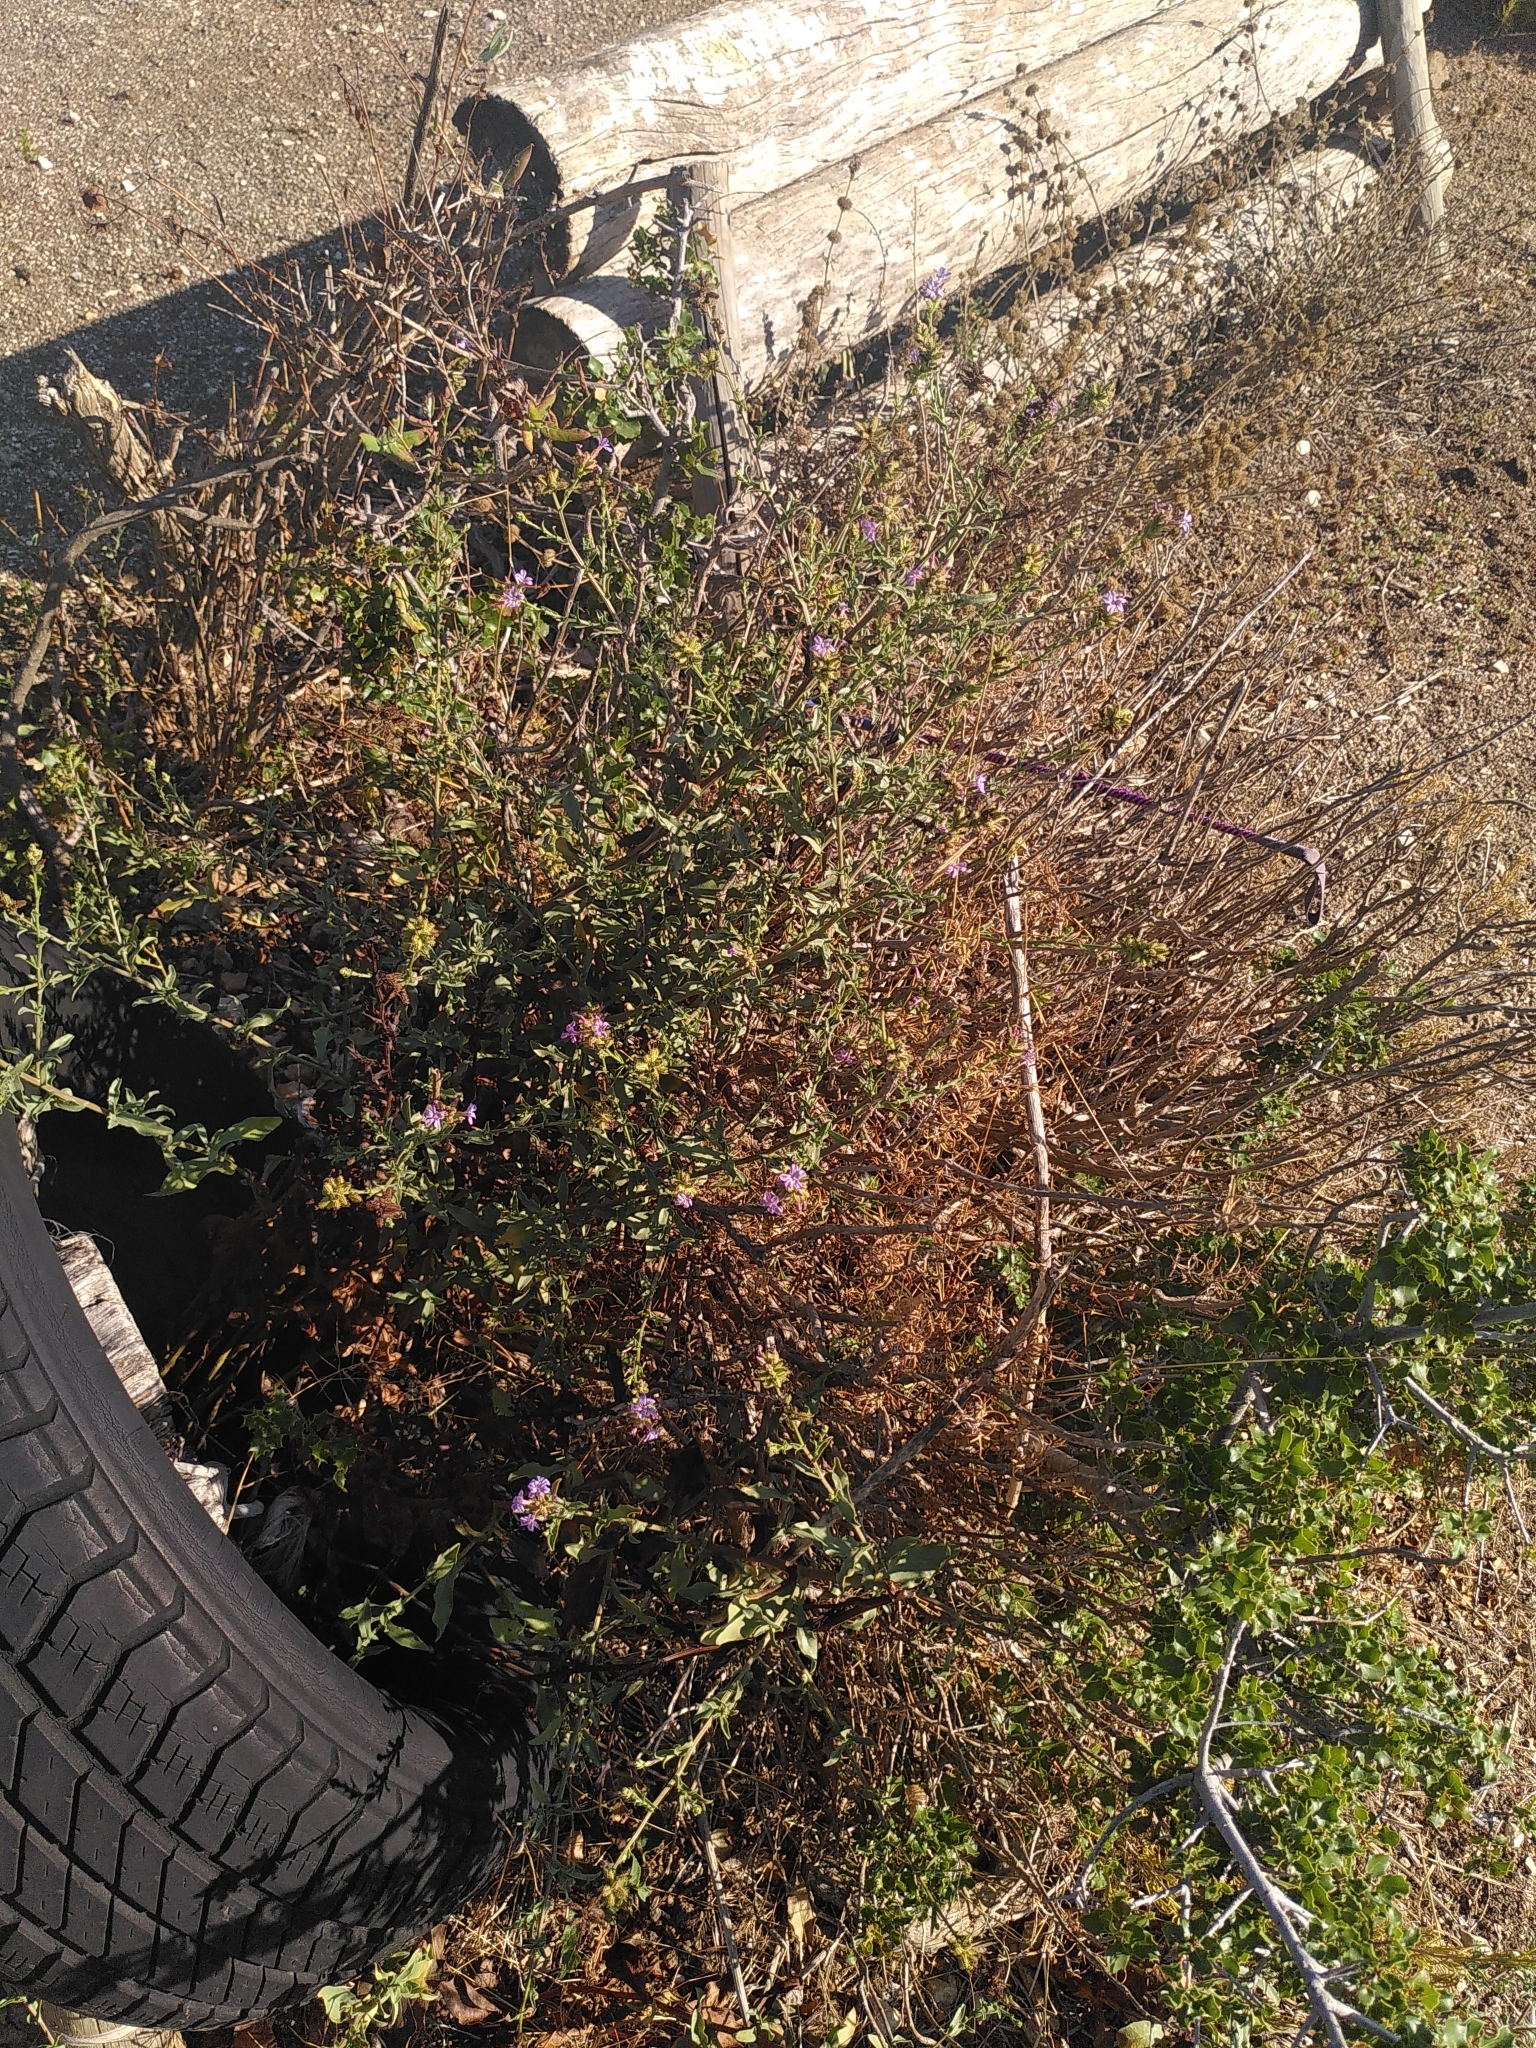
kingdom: Plantae
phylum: Tracheophyta
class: Magnoliopsida
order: Caryophyllales
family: Plumbaginaceae
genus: Plumbago
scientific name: Plumbago europaea
